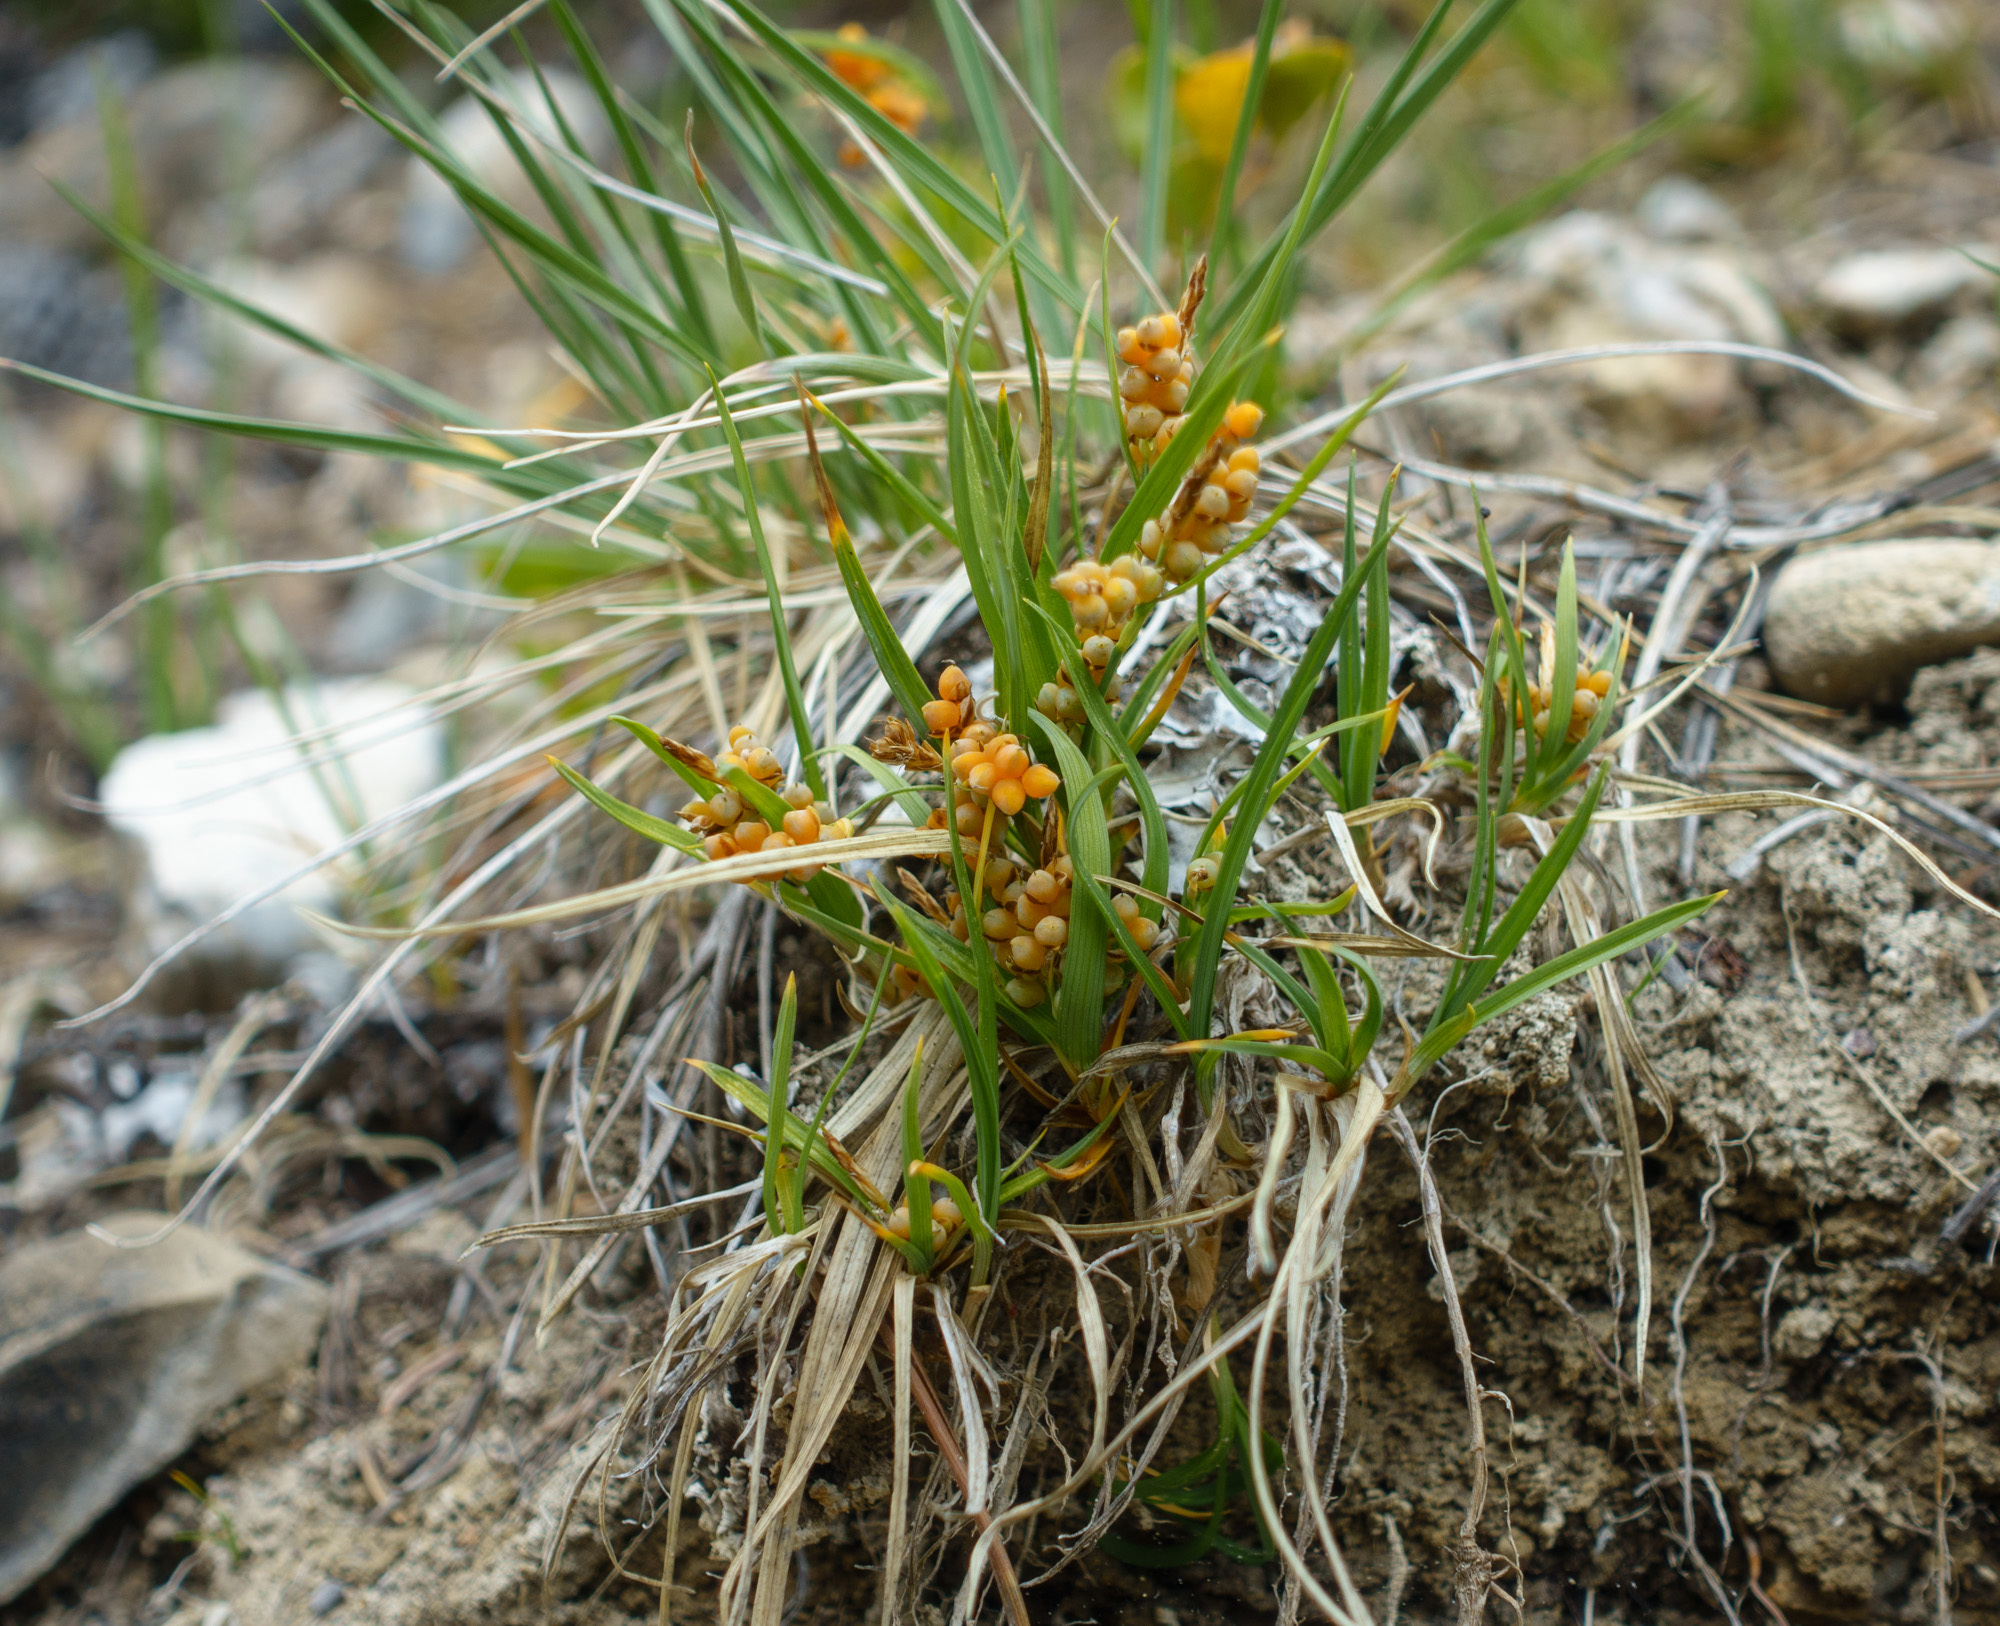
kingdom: Plantae
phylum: Tracheophyta
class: Liliopsida
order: Poales
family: Cyperaceae
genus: Carex
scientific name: Carex aurea
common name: Golden sedge
